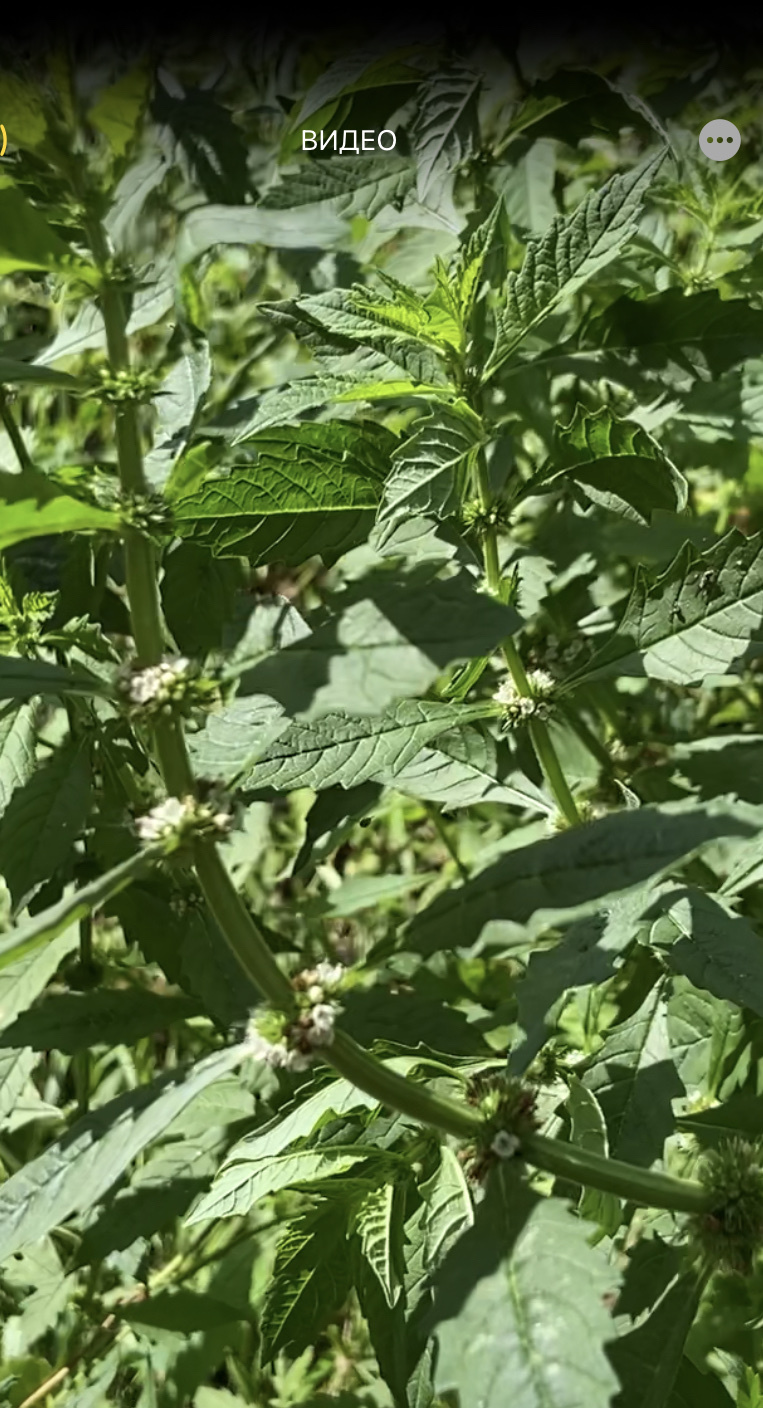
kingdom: Plantae
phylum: Tracheophyta
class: Magnoliopsida
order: Lamiales
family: Lamiaceae
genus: Lycopus
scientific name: Lycopus europaeus
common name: European bugleweed
